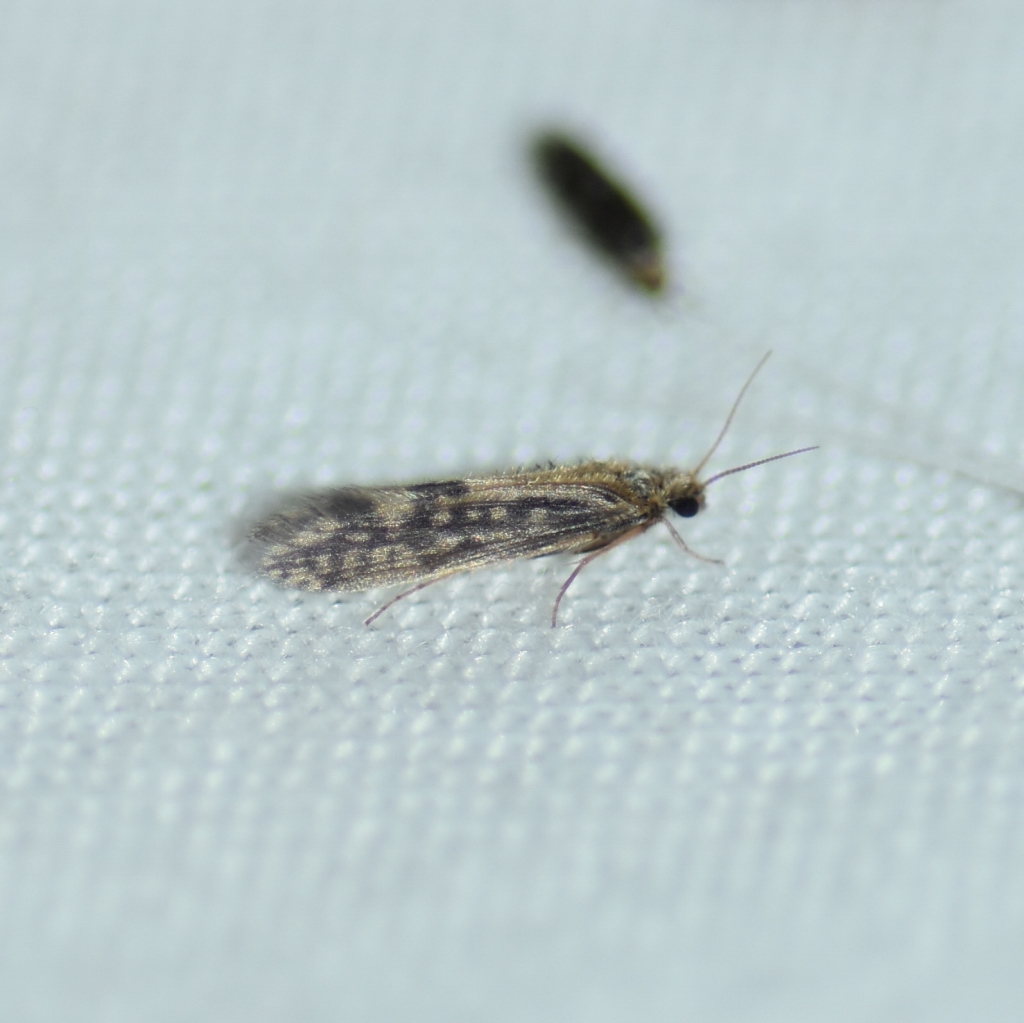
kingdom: Animalia
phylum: Arthropoda
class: Insecta
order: Trichoptera
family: Hydroptilidae
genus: Agraylea
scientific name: Agraylea multipunctata
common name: Salt and pepper microcaddisfly
